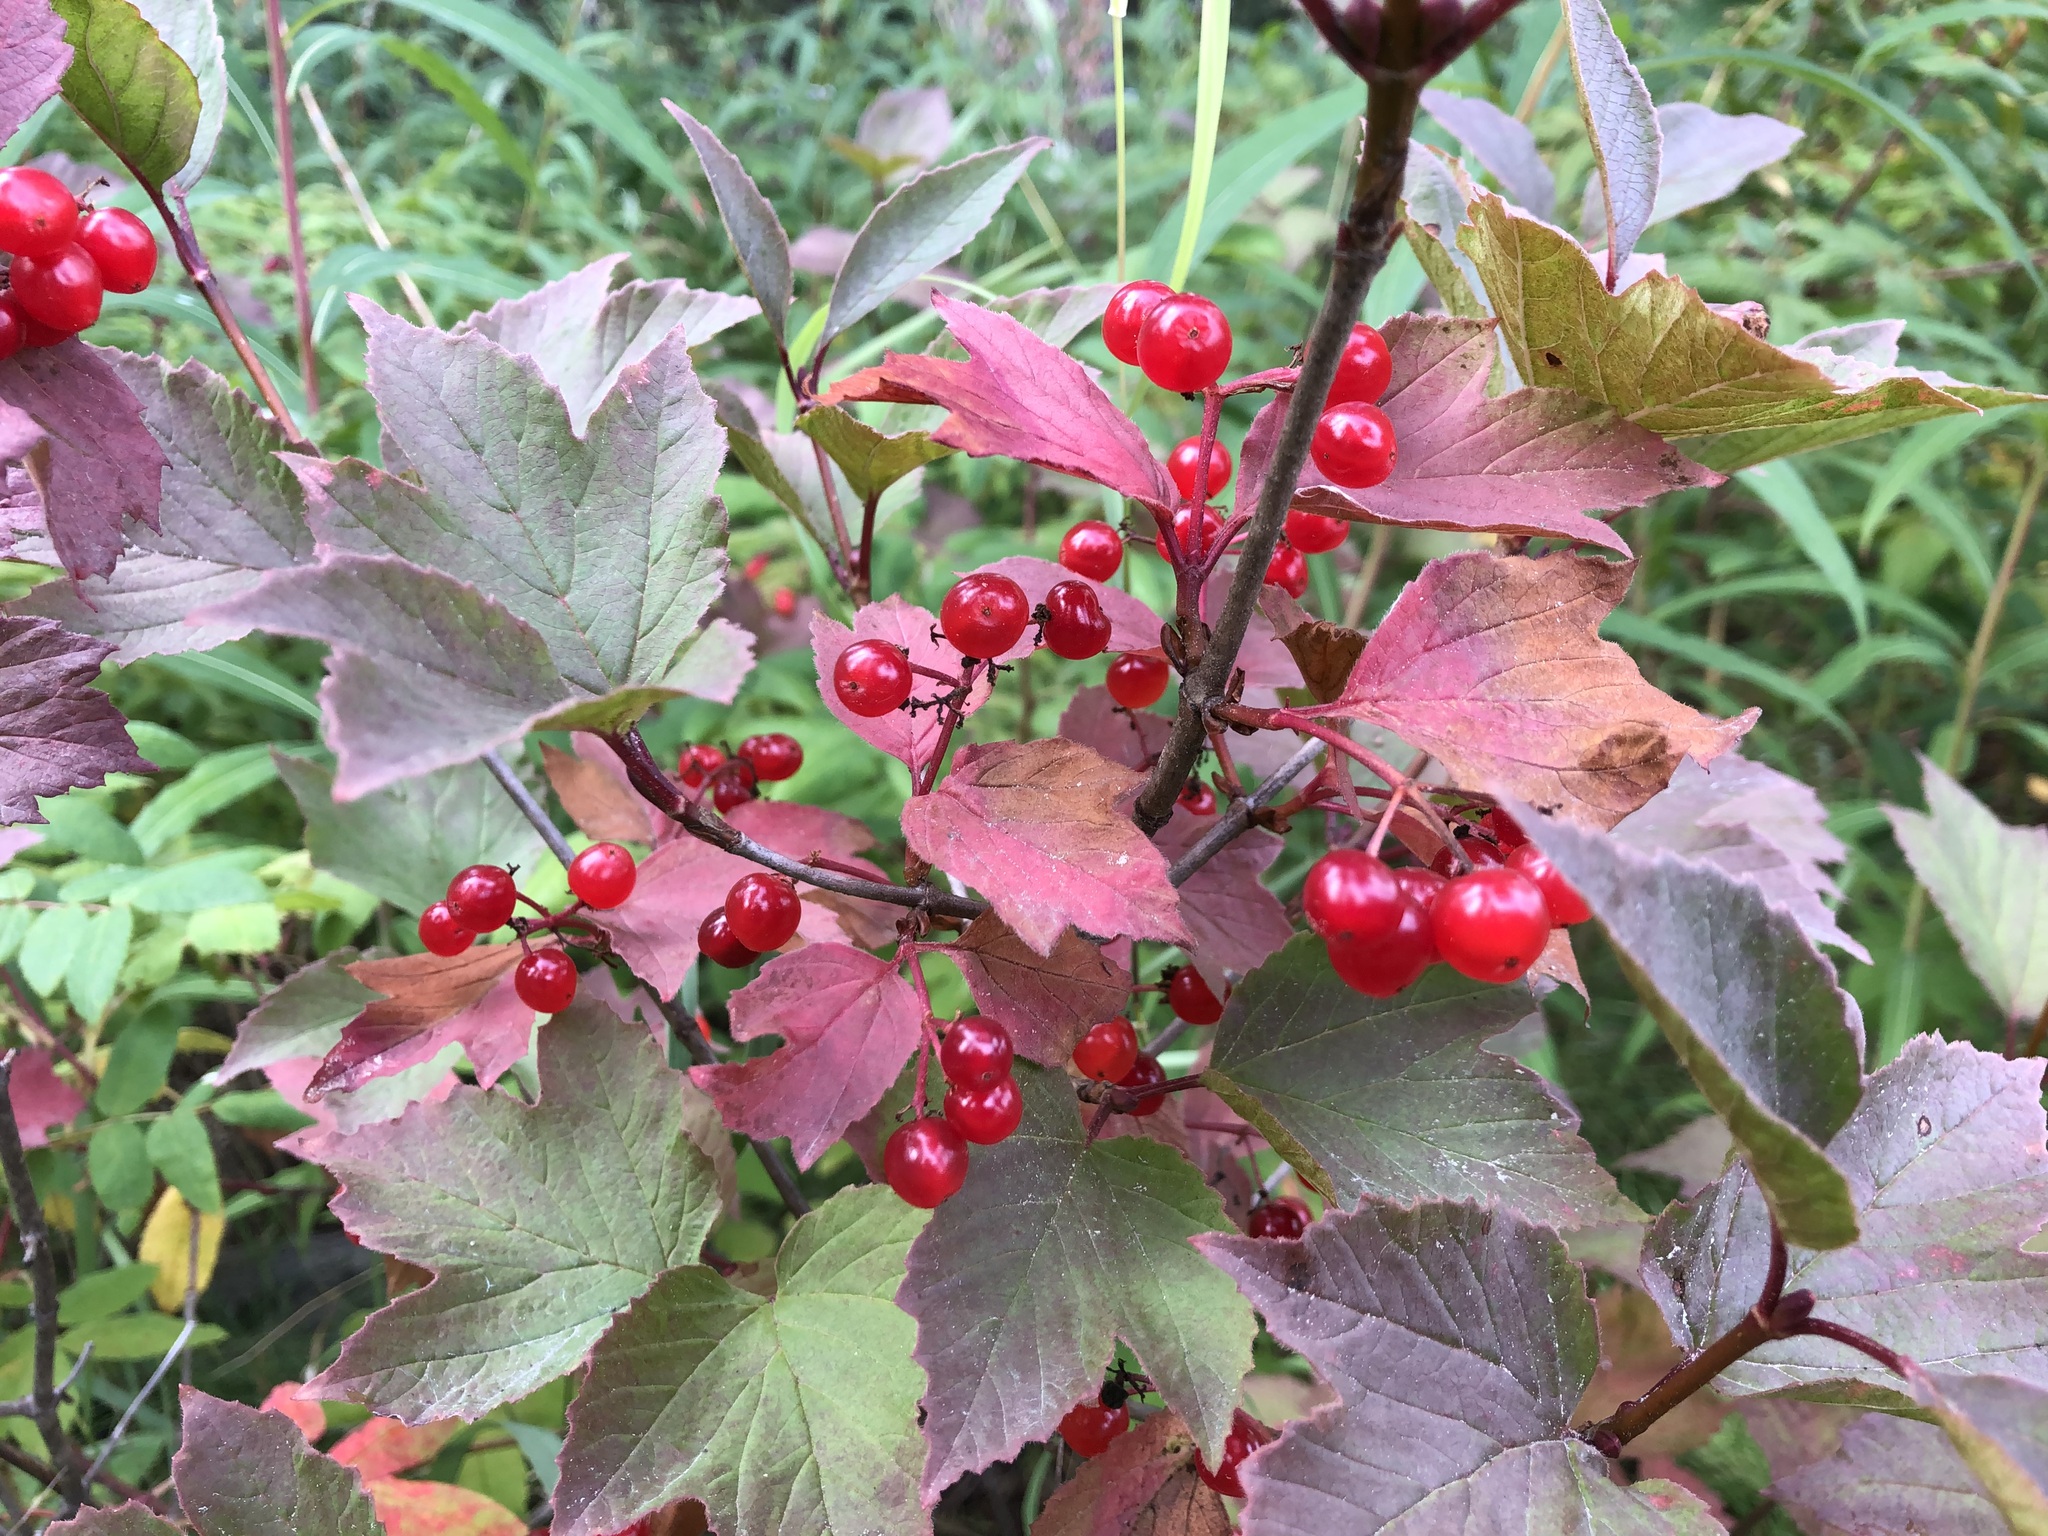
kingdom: Plantae
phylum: Tracheophyta
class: Magnoliopsida
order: Dipsacales
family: Viburnaceae
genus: Viburnum
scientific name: Viburnum edule
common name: Mooseberry
